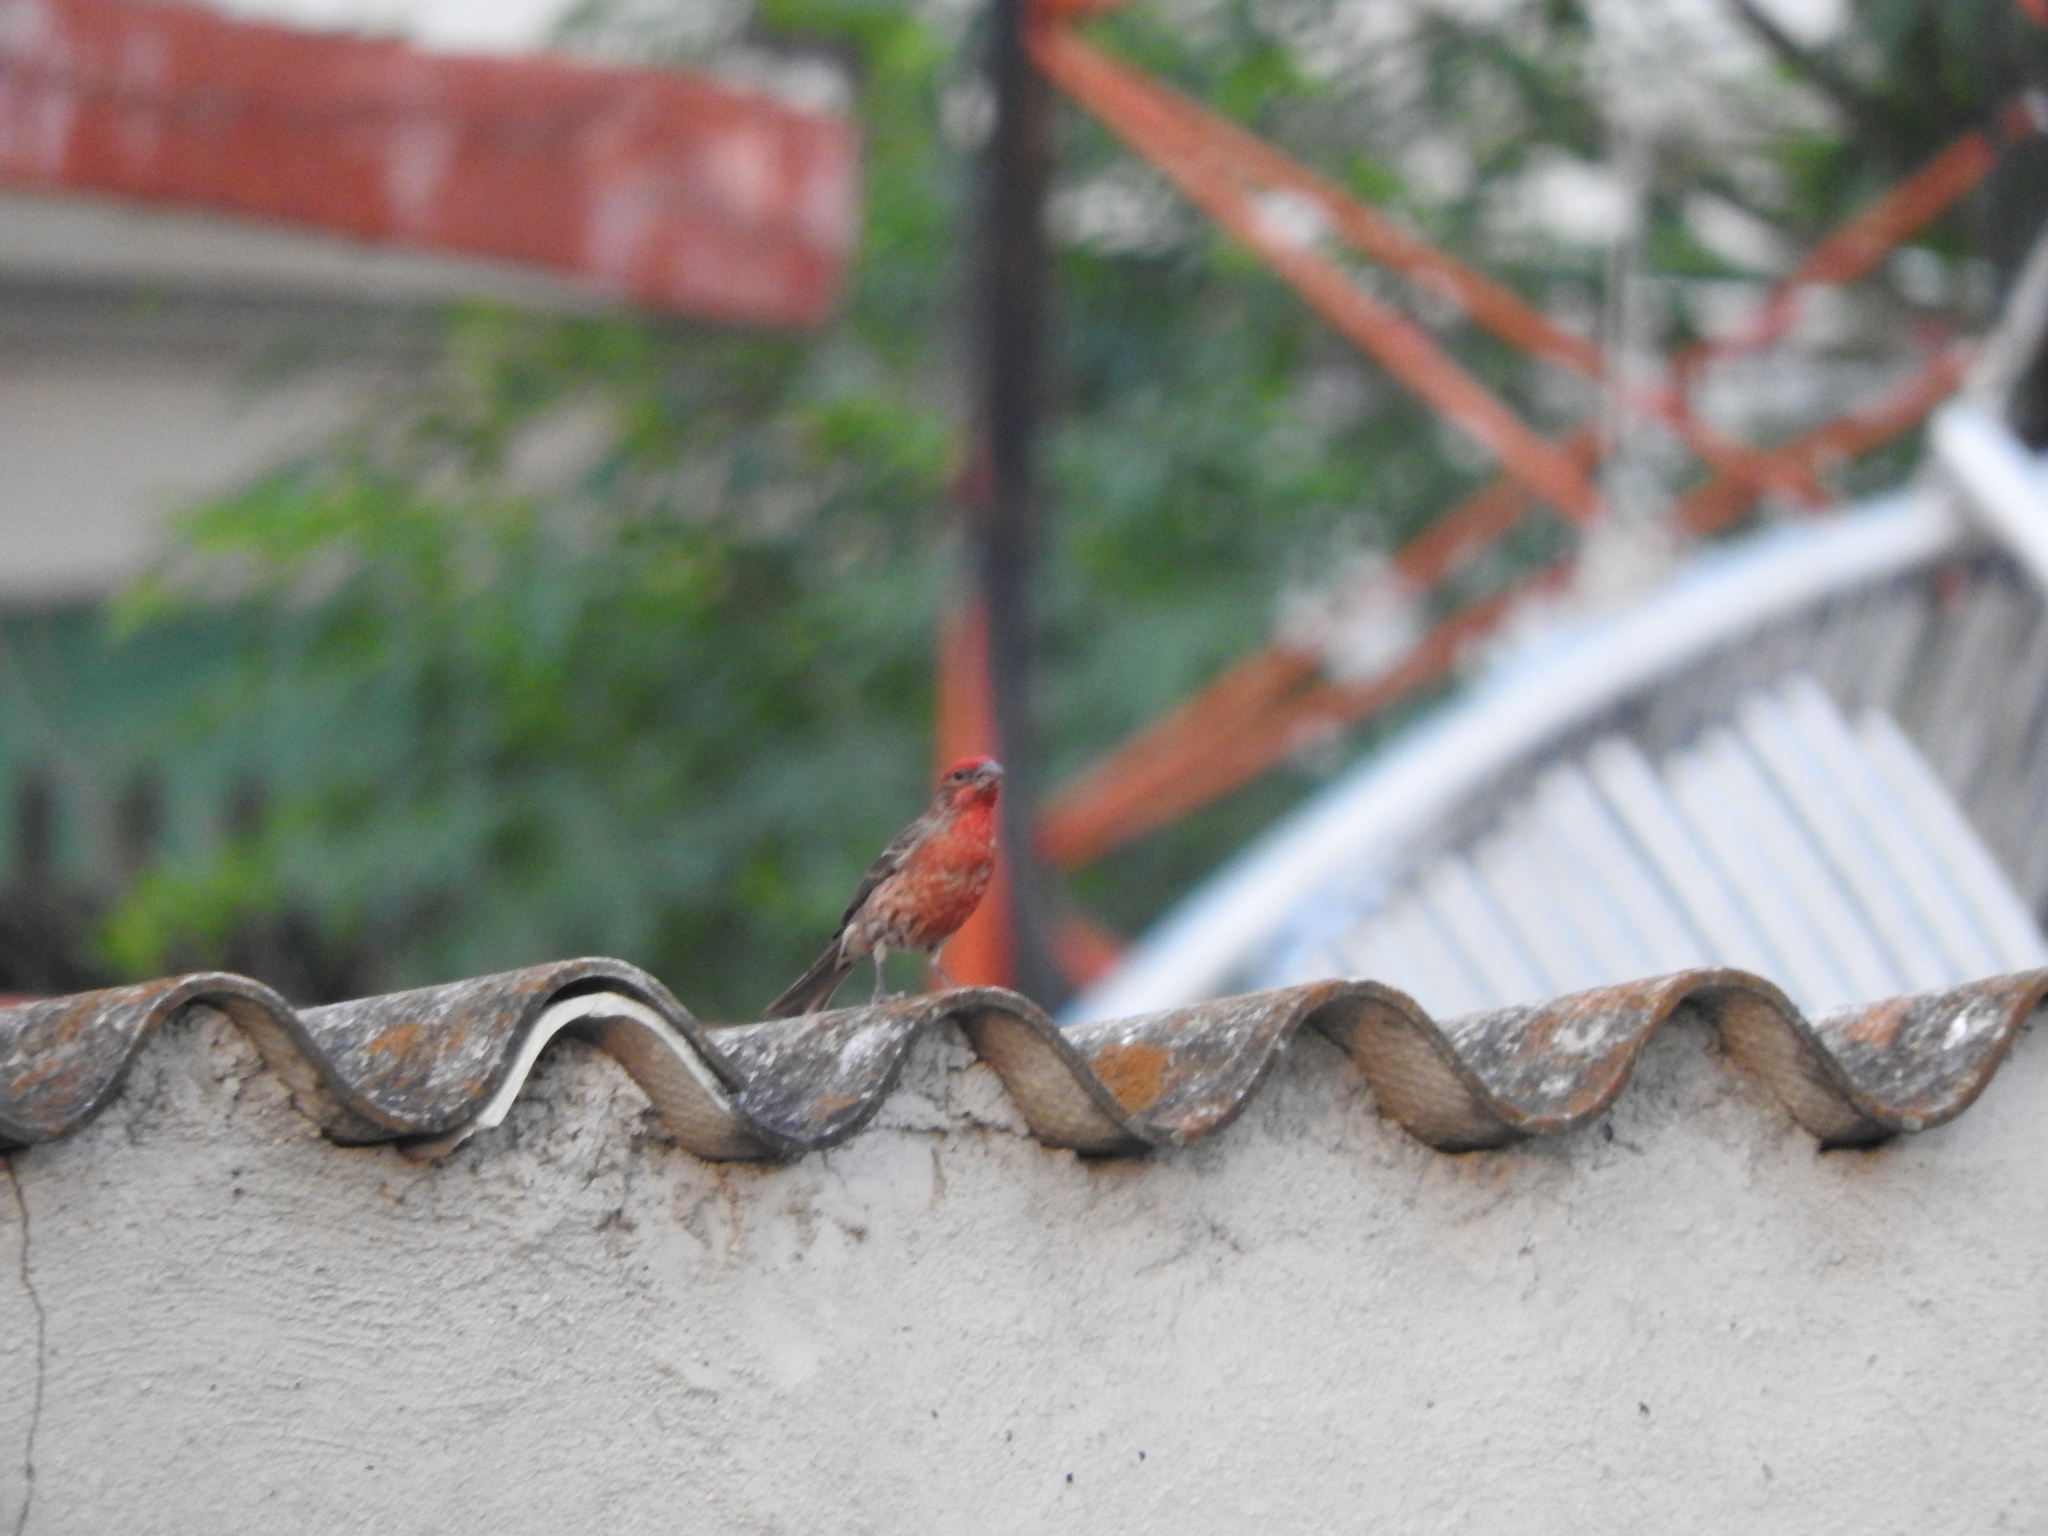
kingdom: Animalia
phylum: Chordata
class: Aves
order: Passeriformes
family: Fringillidae
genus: Haemorhous
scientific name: Haemorhous mexicanus
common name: House finch
